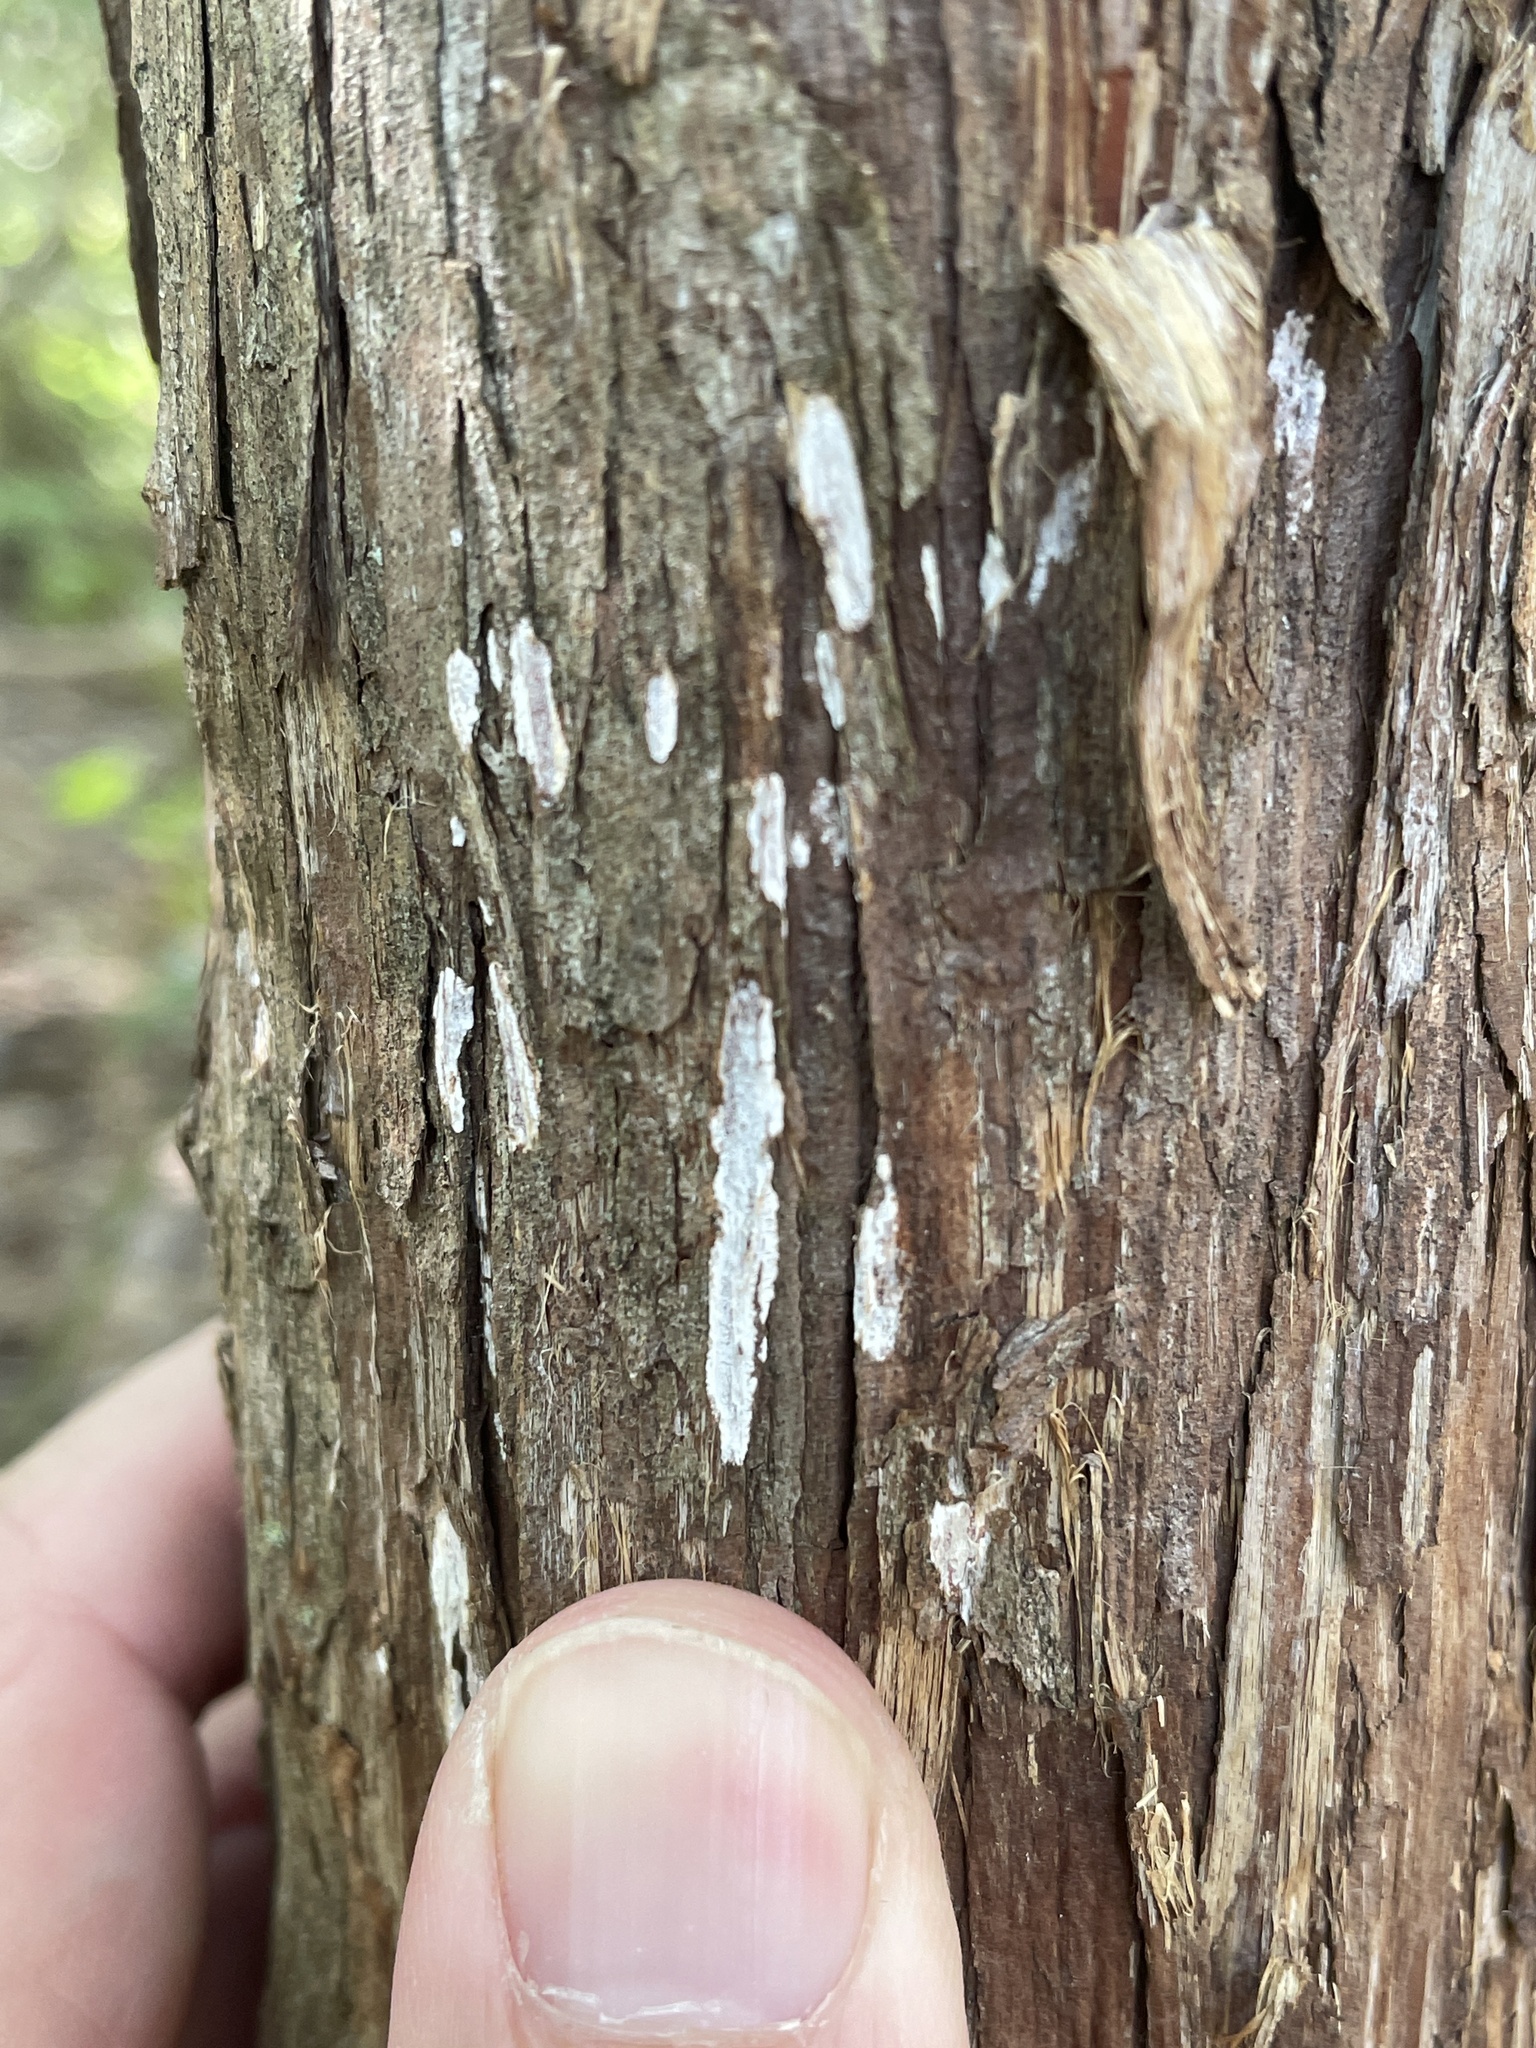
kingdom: Fungi
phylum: Basidiomycota
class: Agaricomycetes
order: Agaricales
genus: Dendrothele
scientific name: Dendrothele nivosa
